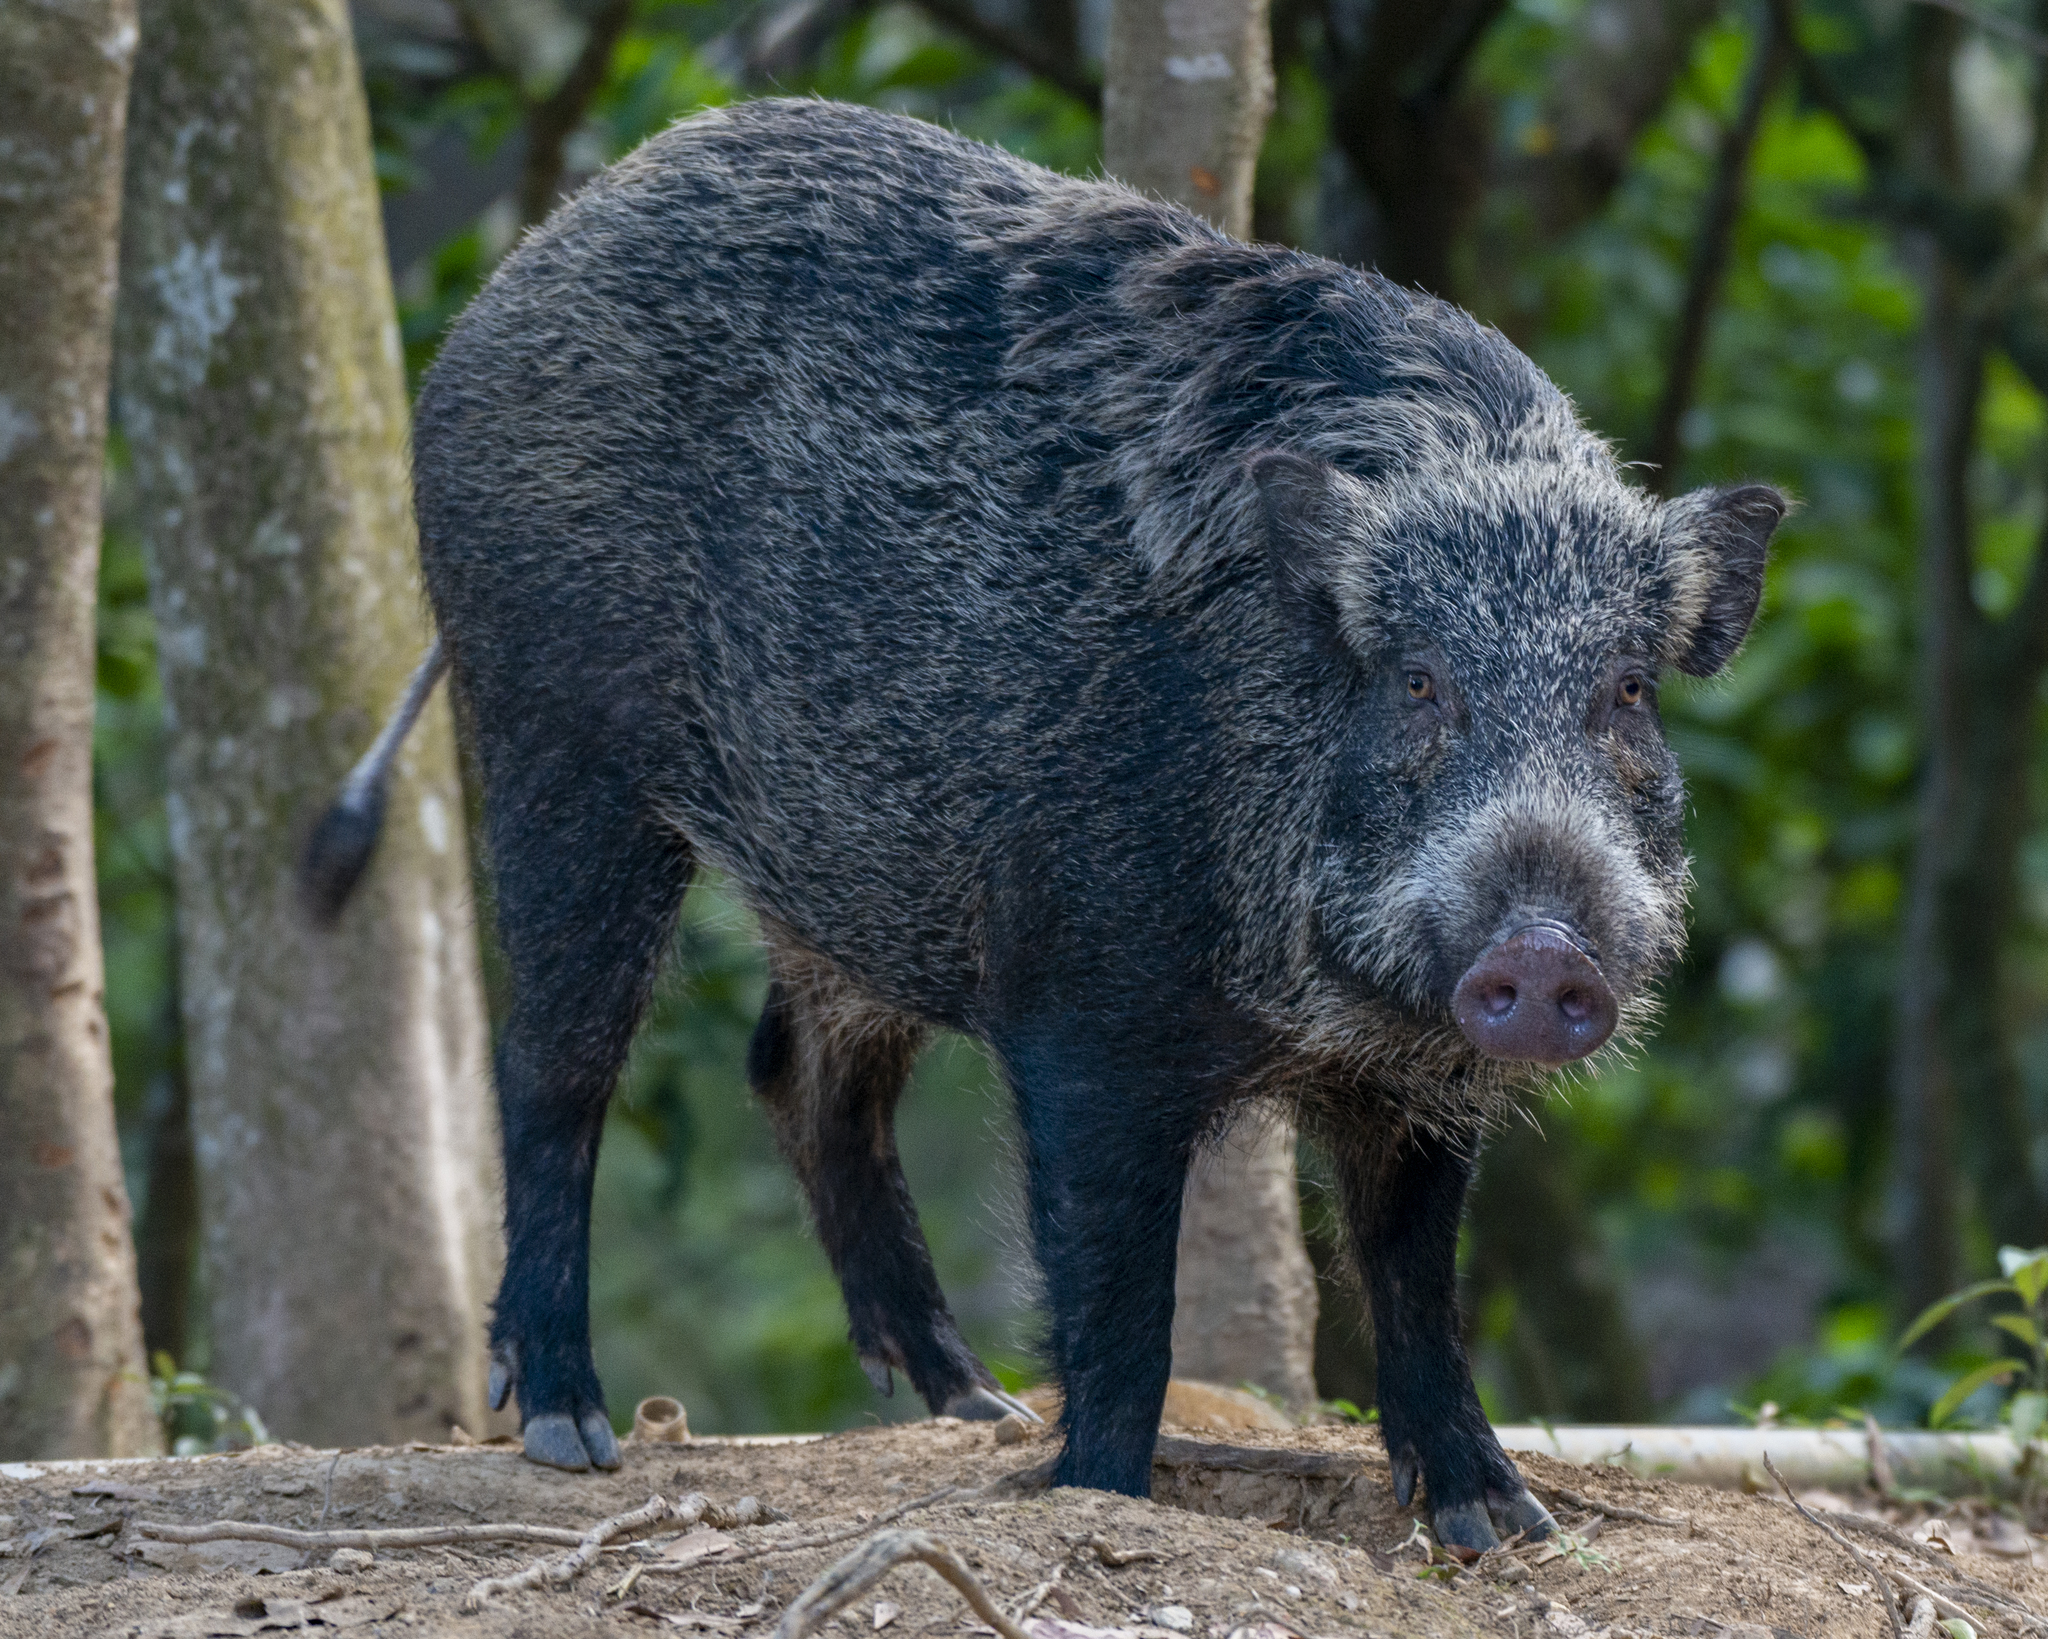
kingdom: Animalia
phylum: Chordata
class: Mammalia
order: Artiodactyla
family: Suidae
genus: Sus
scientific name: Sus scrofa
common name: Wild boar
